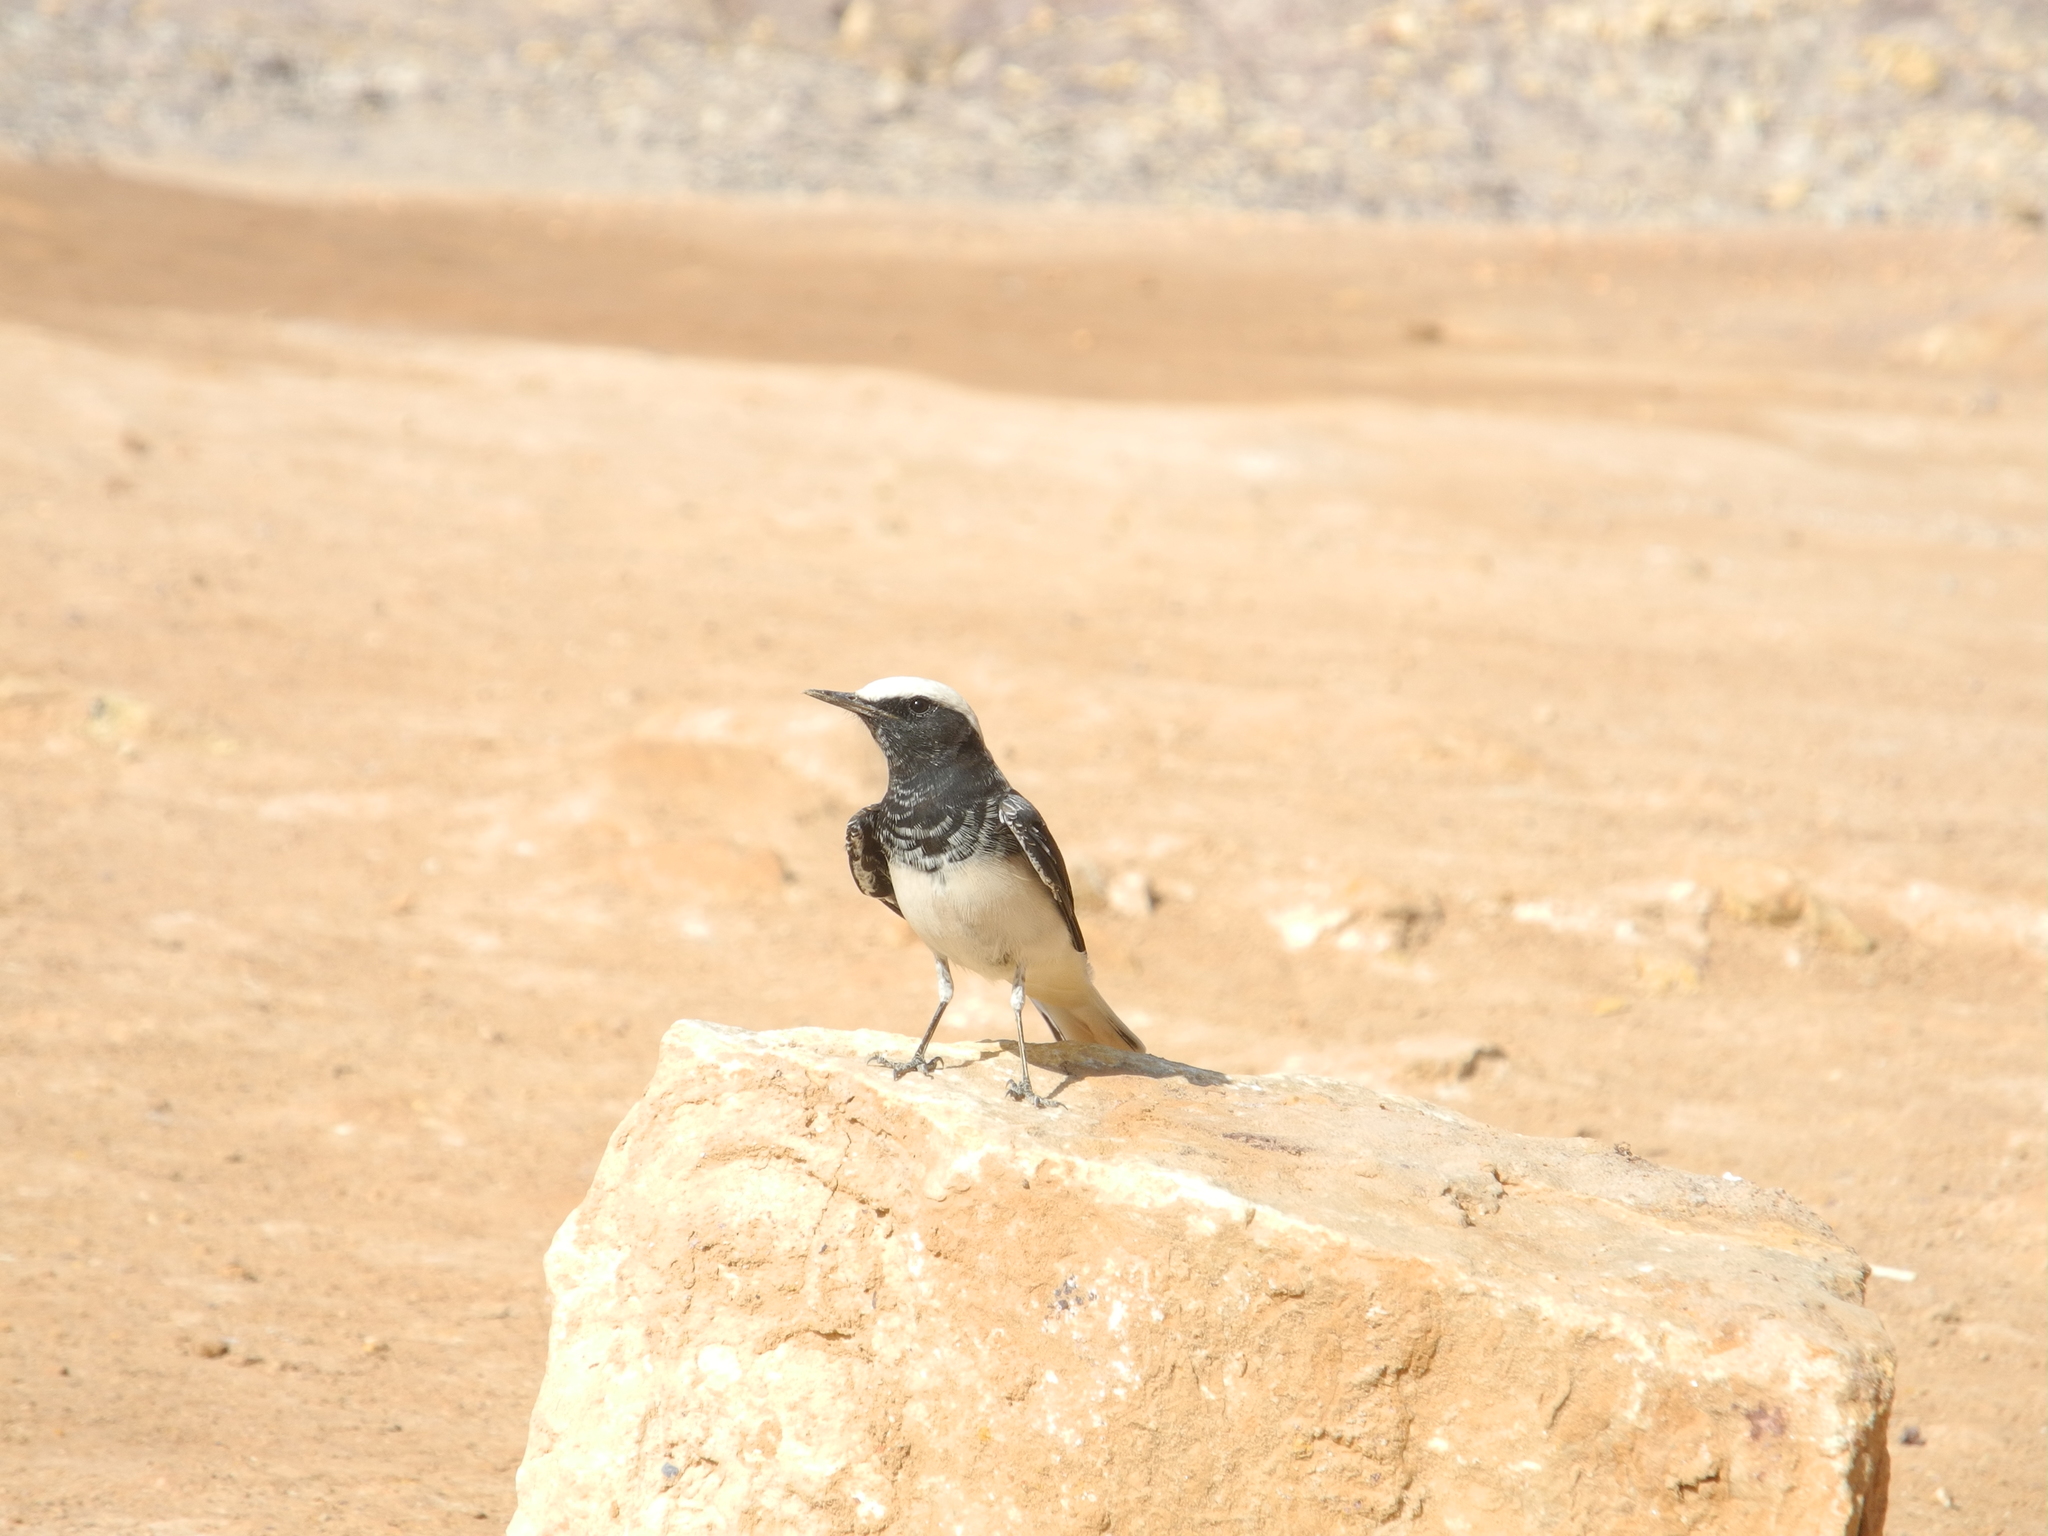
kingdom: Animalia
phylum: Chordata
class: Aves
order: Passeriformes
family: Muscicapidae
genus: Oenanthe
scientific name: Oenanthe monacha
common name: Hooded wheatear
